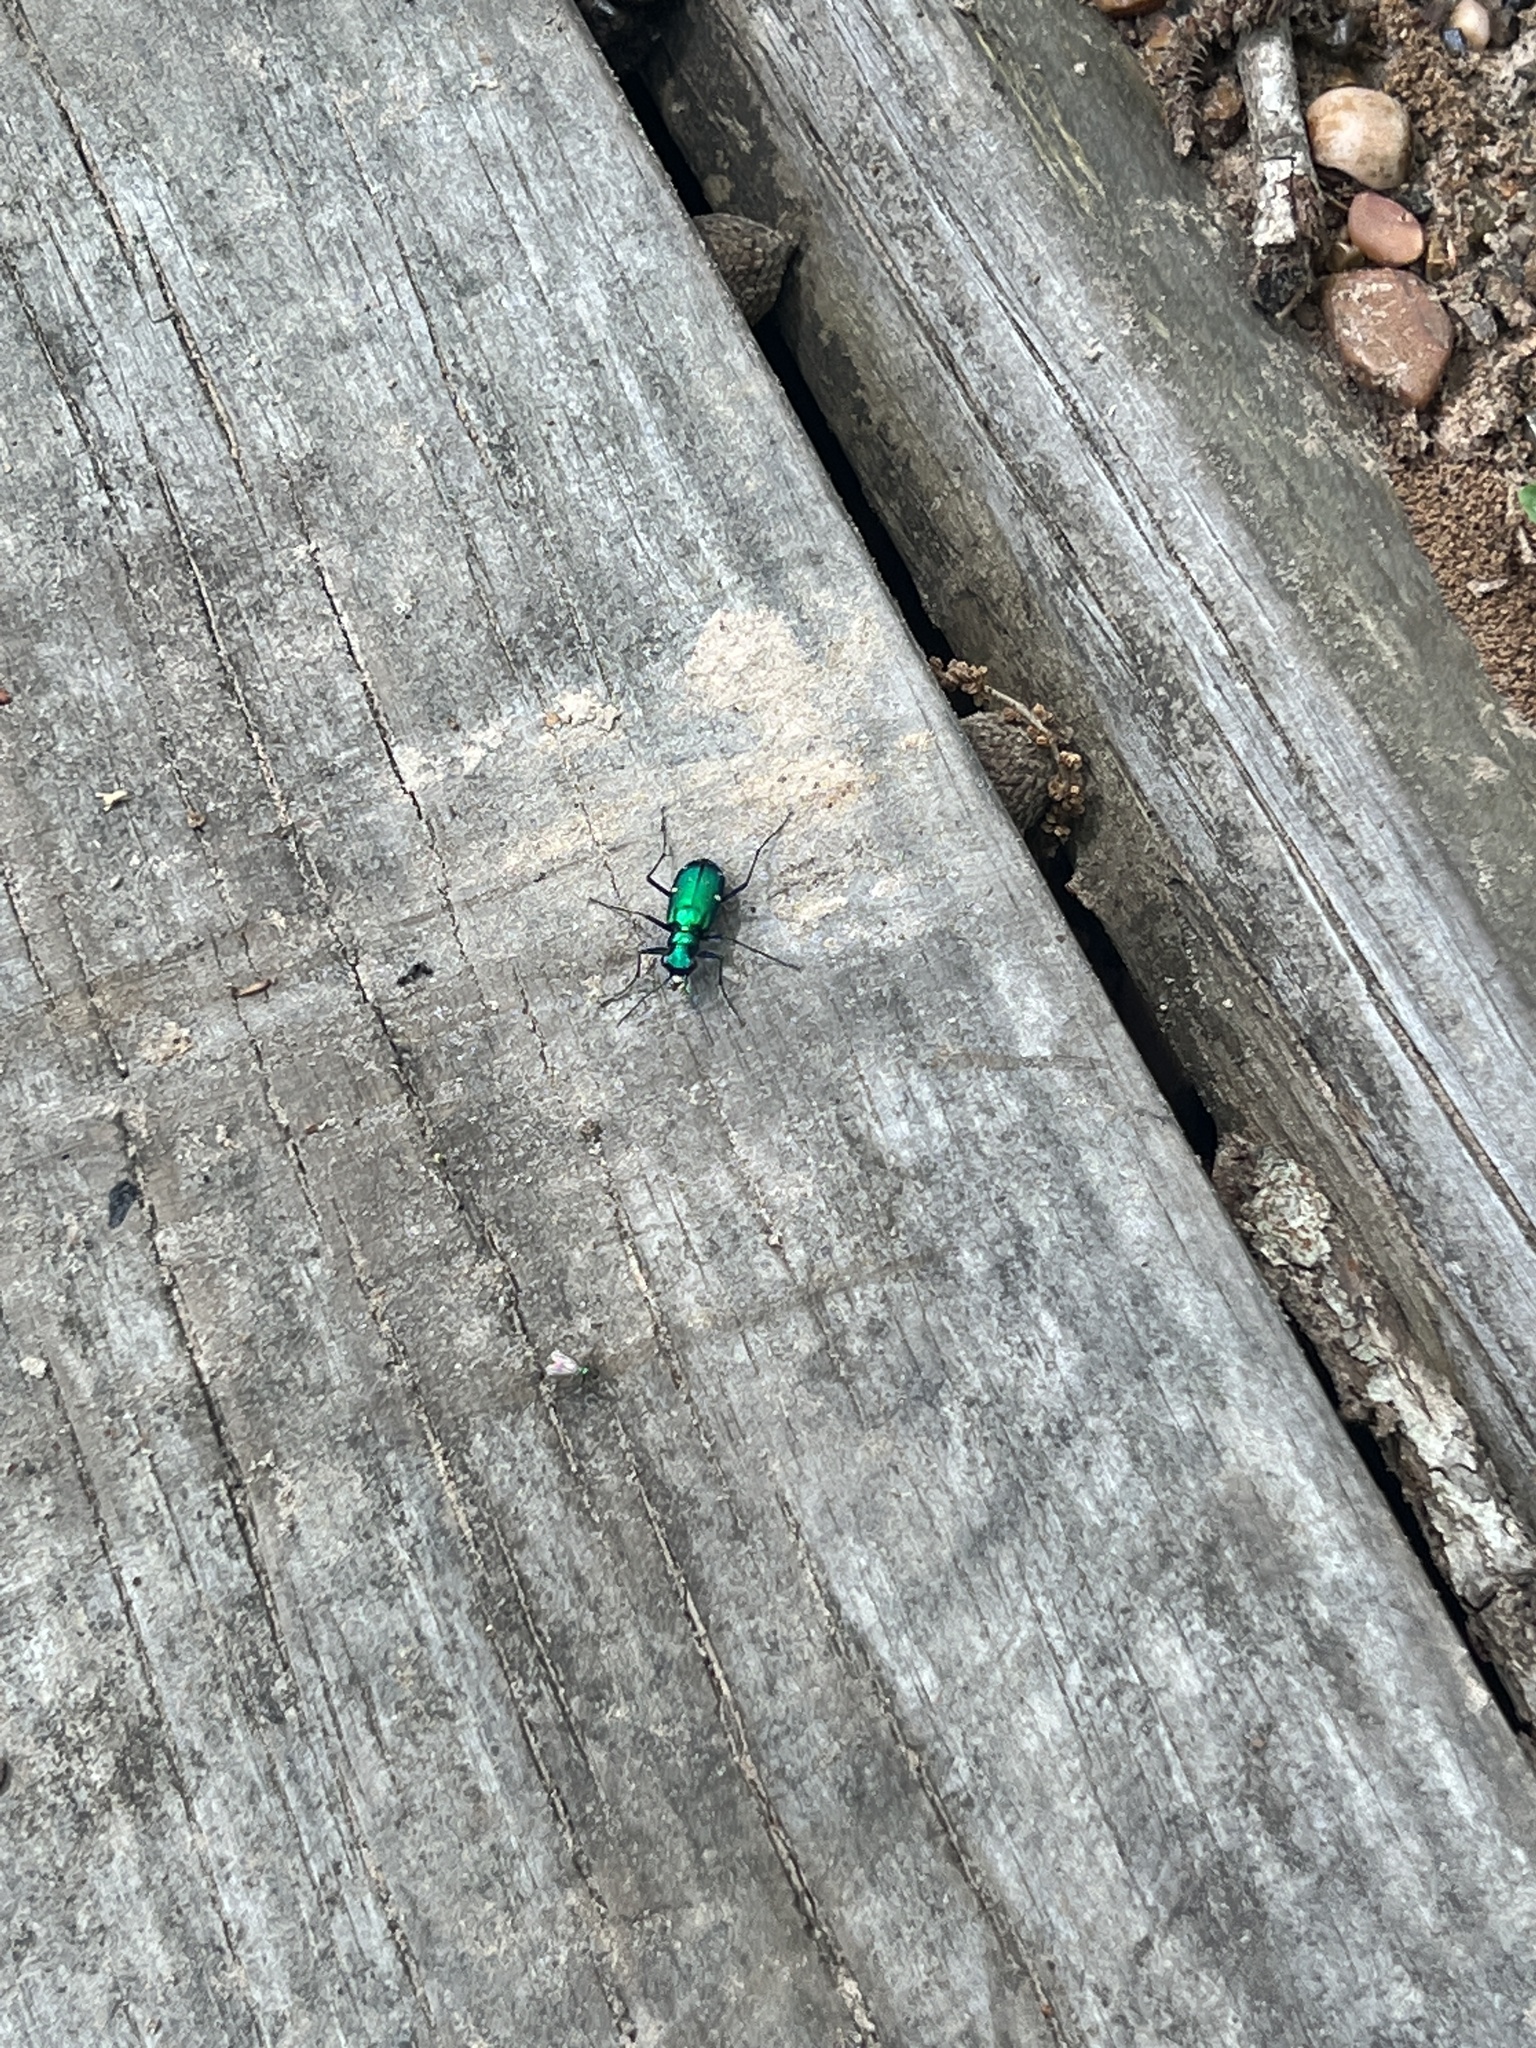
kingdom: Animalia
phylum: Arthropoda
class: Insecta
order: Coleoptera
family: Carabidae
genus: Cicindela
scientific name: Cicindela sexguttata
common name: Six-spotted tiger beetle
